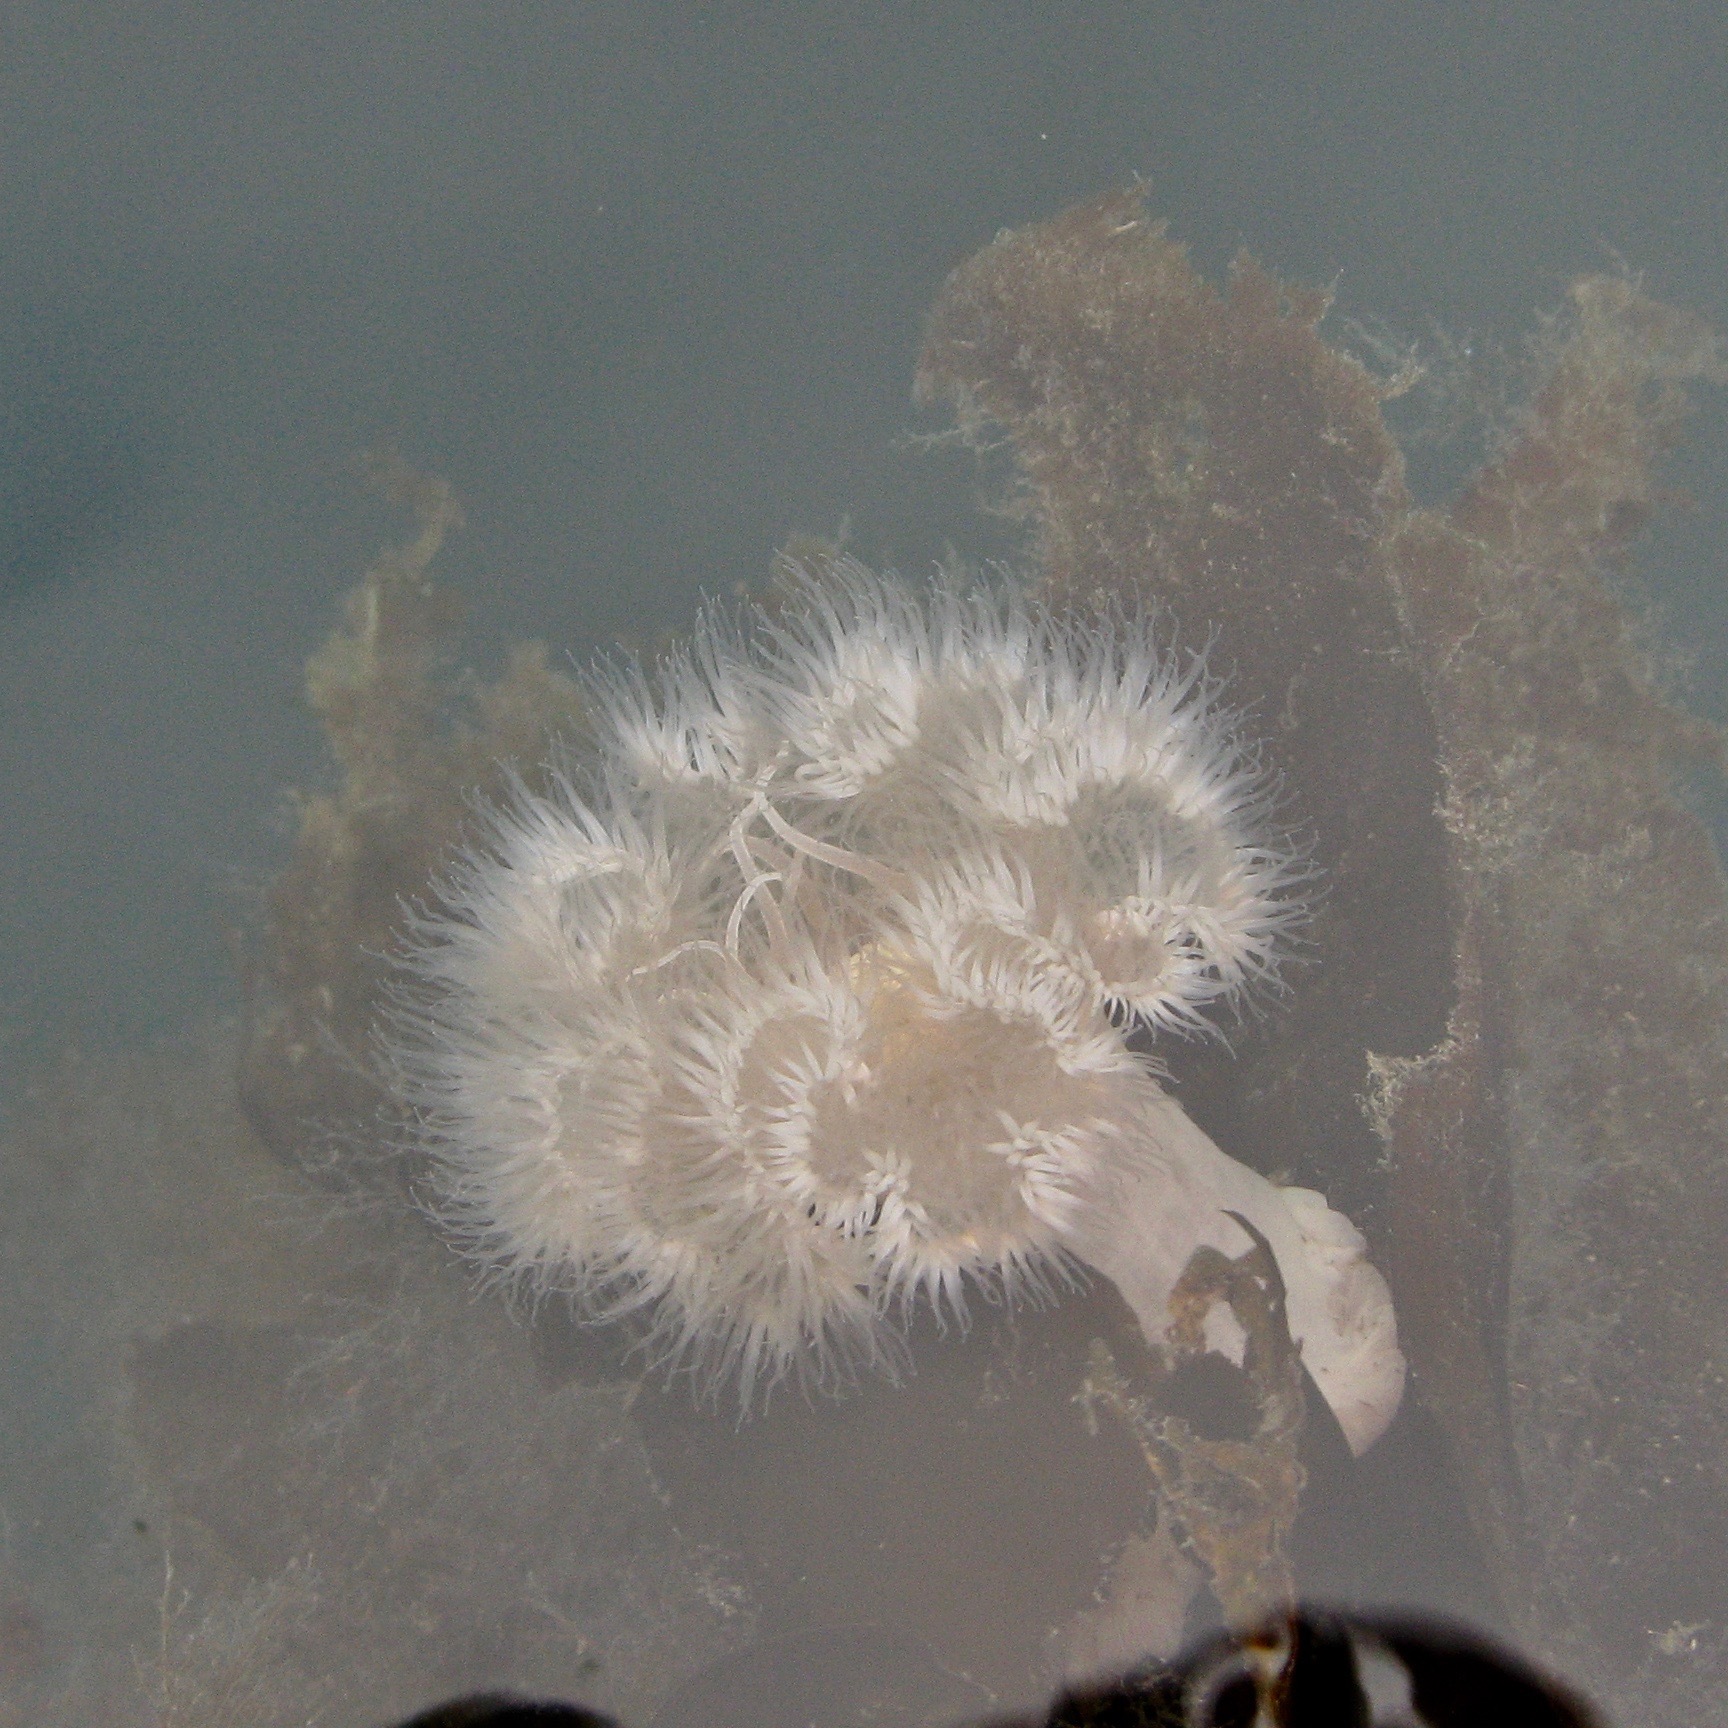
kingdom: Animalia
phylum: Cnidaria
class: Anthozoa
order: Actiniaria
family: Metridiidae
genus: Metridium
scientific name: Metridium senile
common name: Clonal plumose anemone
